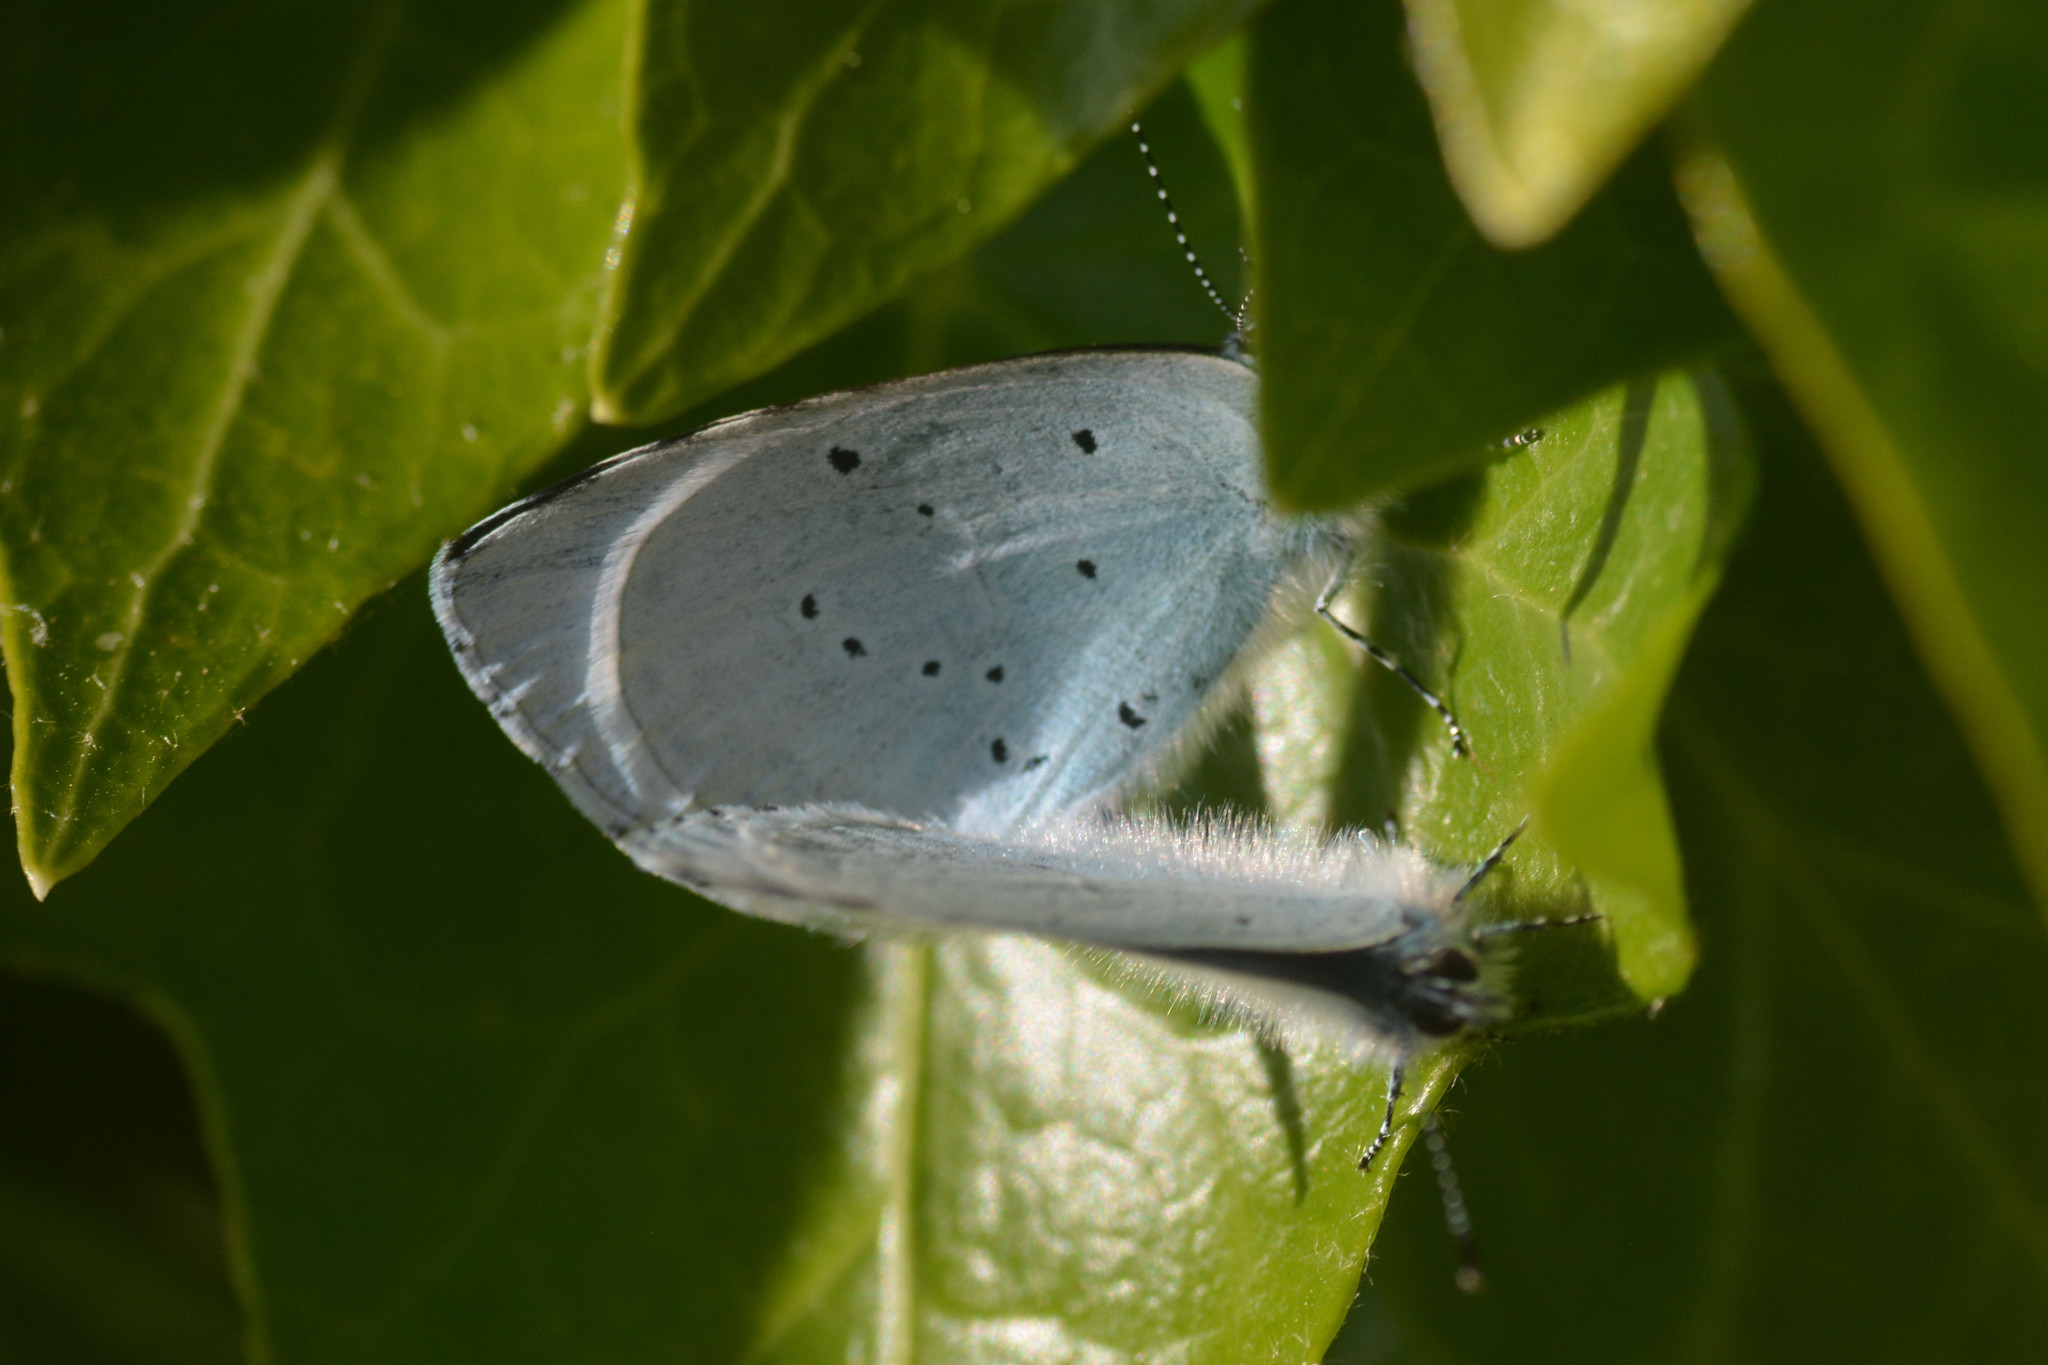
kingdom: Animalia
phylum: Arthropoda
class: Insecta
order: Lepidoptera
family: Lycaenidae
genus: Celastrina
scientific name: Celastrina argiolus
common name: Holly blue
